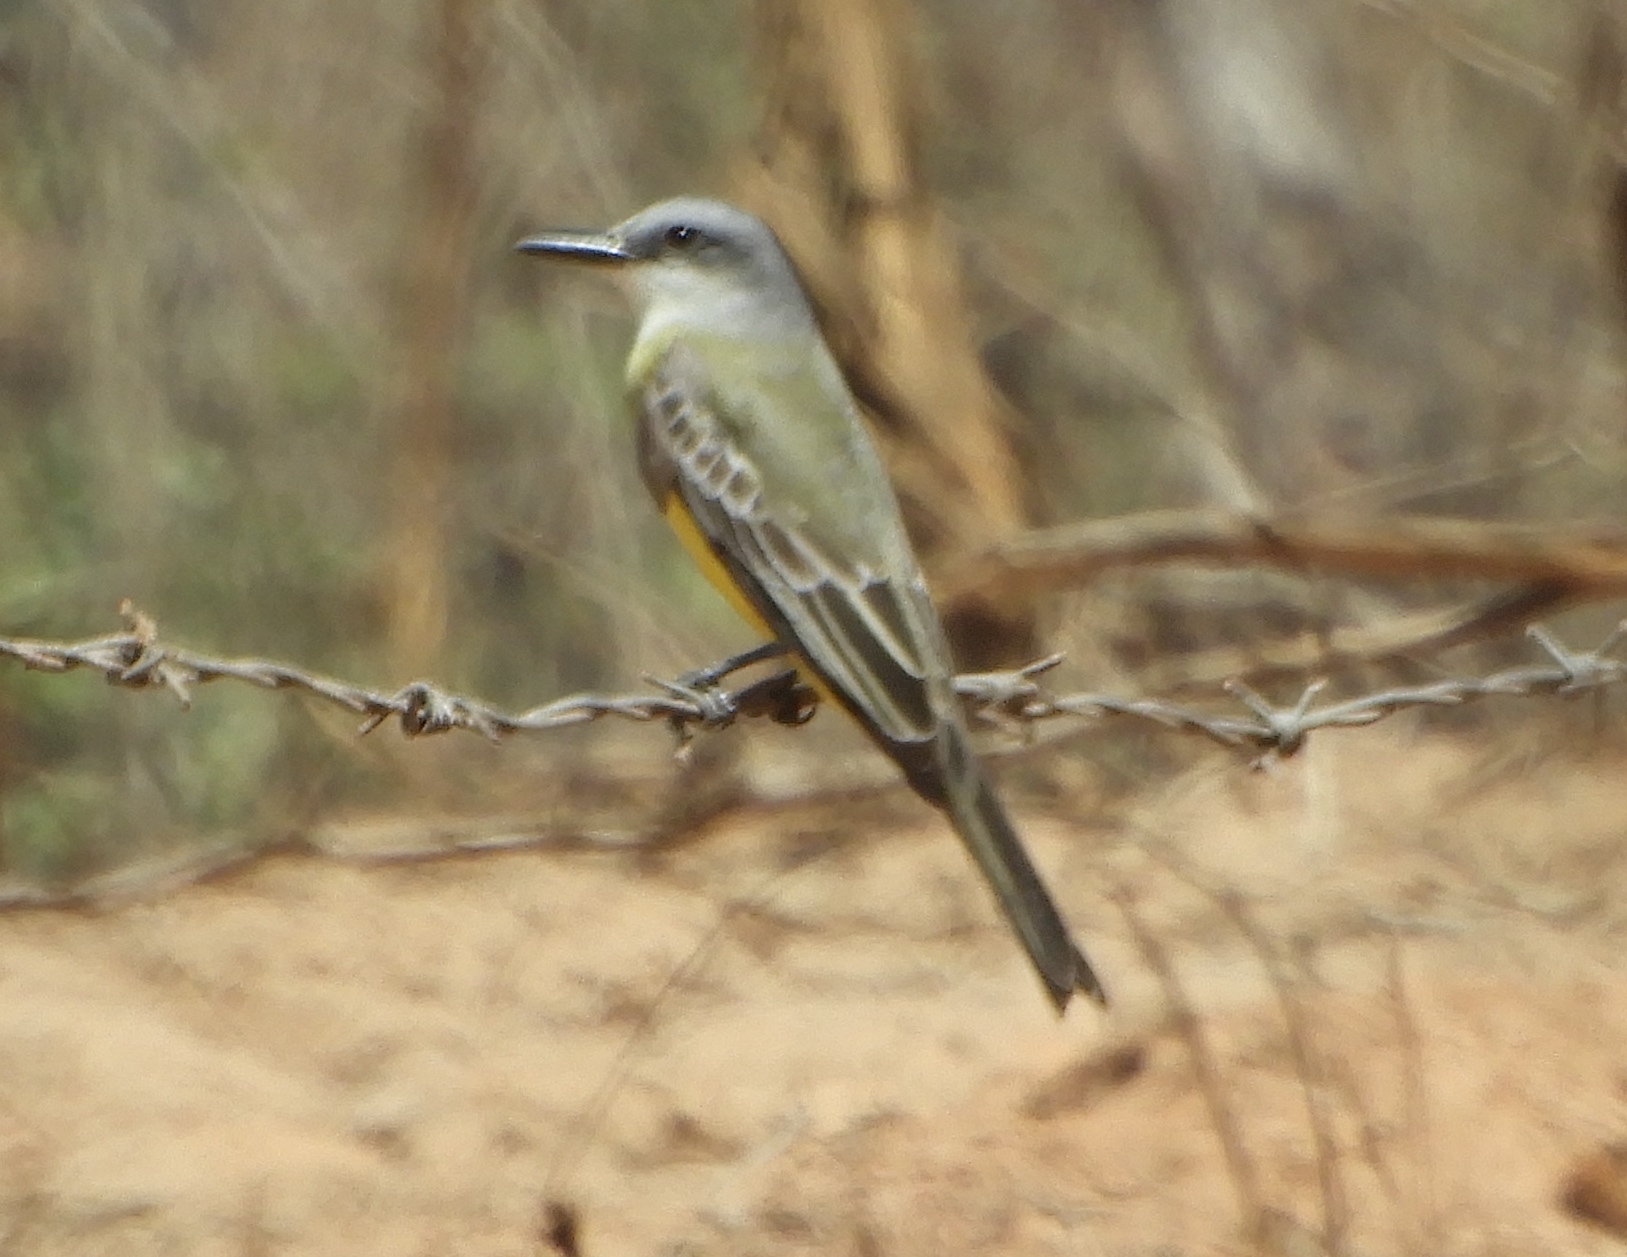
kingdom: Animalia
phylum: Chordata
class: Aves
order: Passeriformes
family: Tyrannidae
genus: Tyrannus
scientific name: Tyrannus melancholicus
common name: Tropical kingbird
